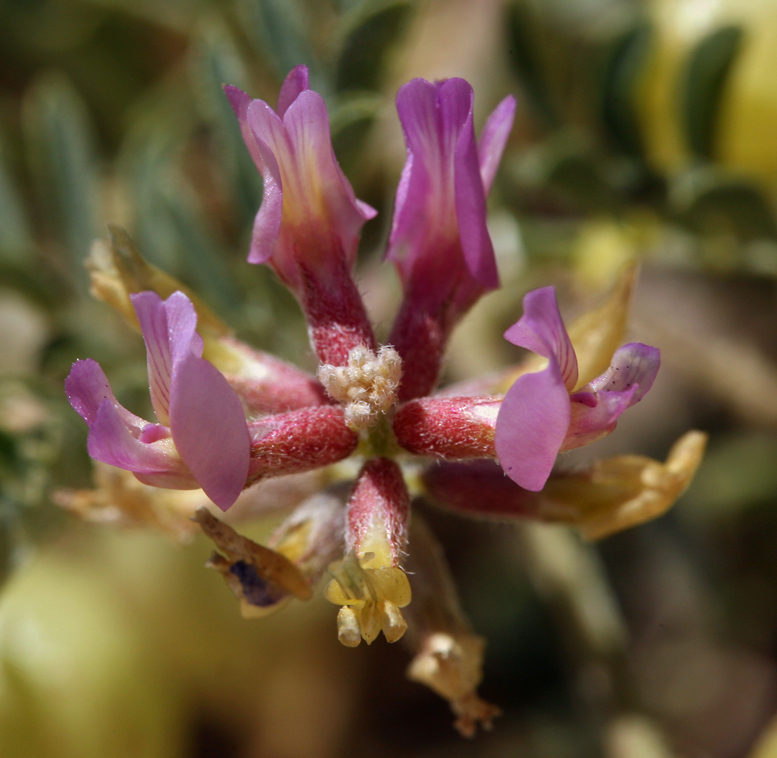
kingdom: Plantae
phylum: Tracheophyta
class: Magnoliopsida
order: Fabales
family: Fabaceae
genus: Astragalus
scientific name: Astragalus lentiginosus
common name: Freckled milkvetch
